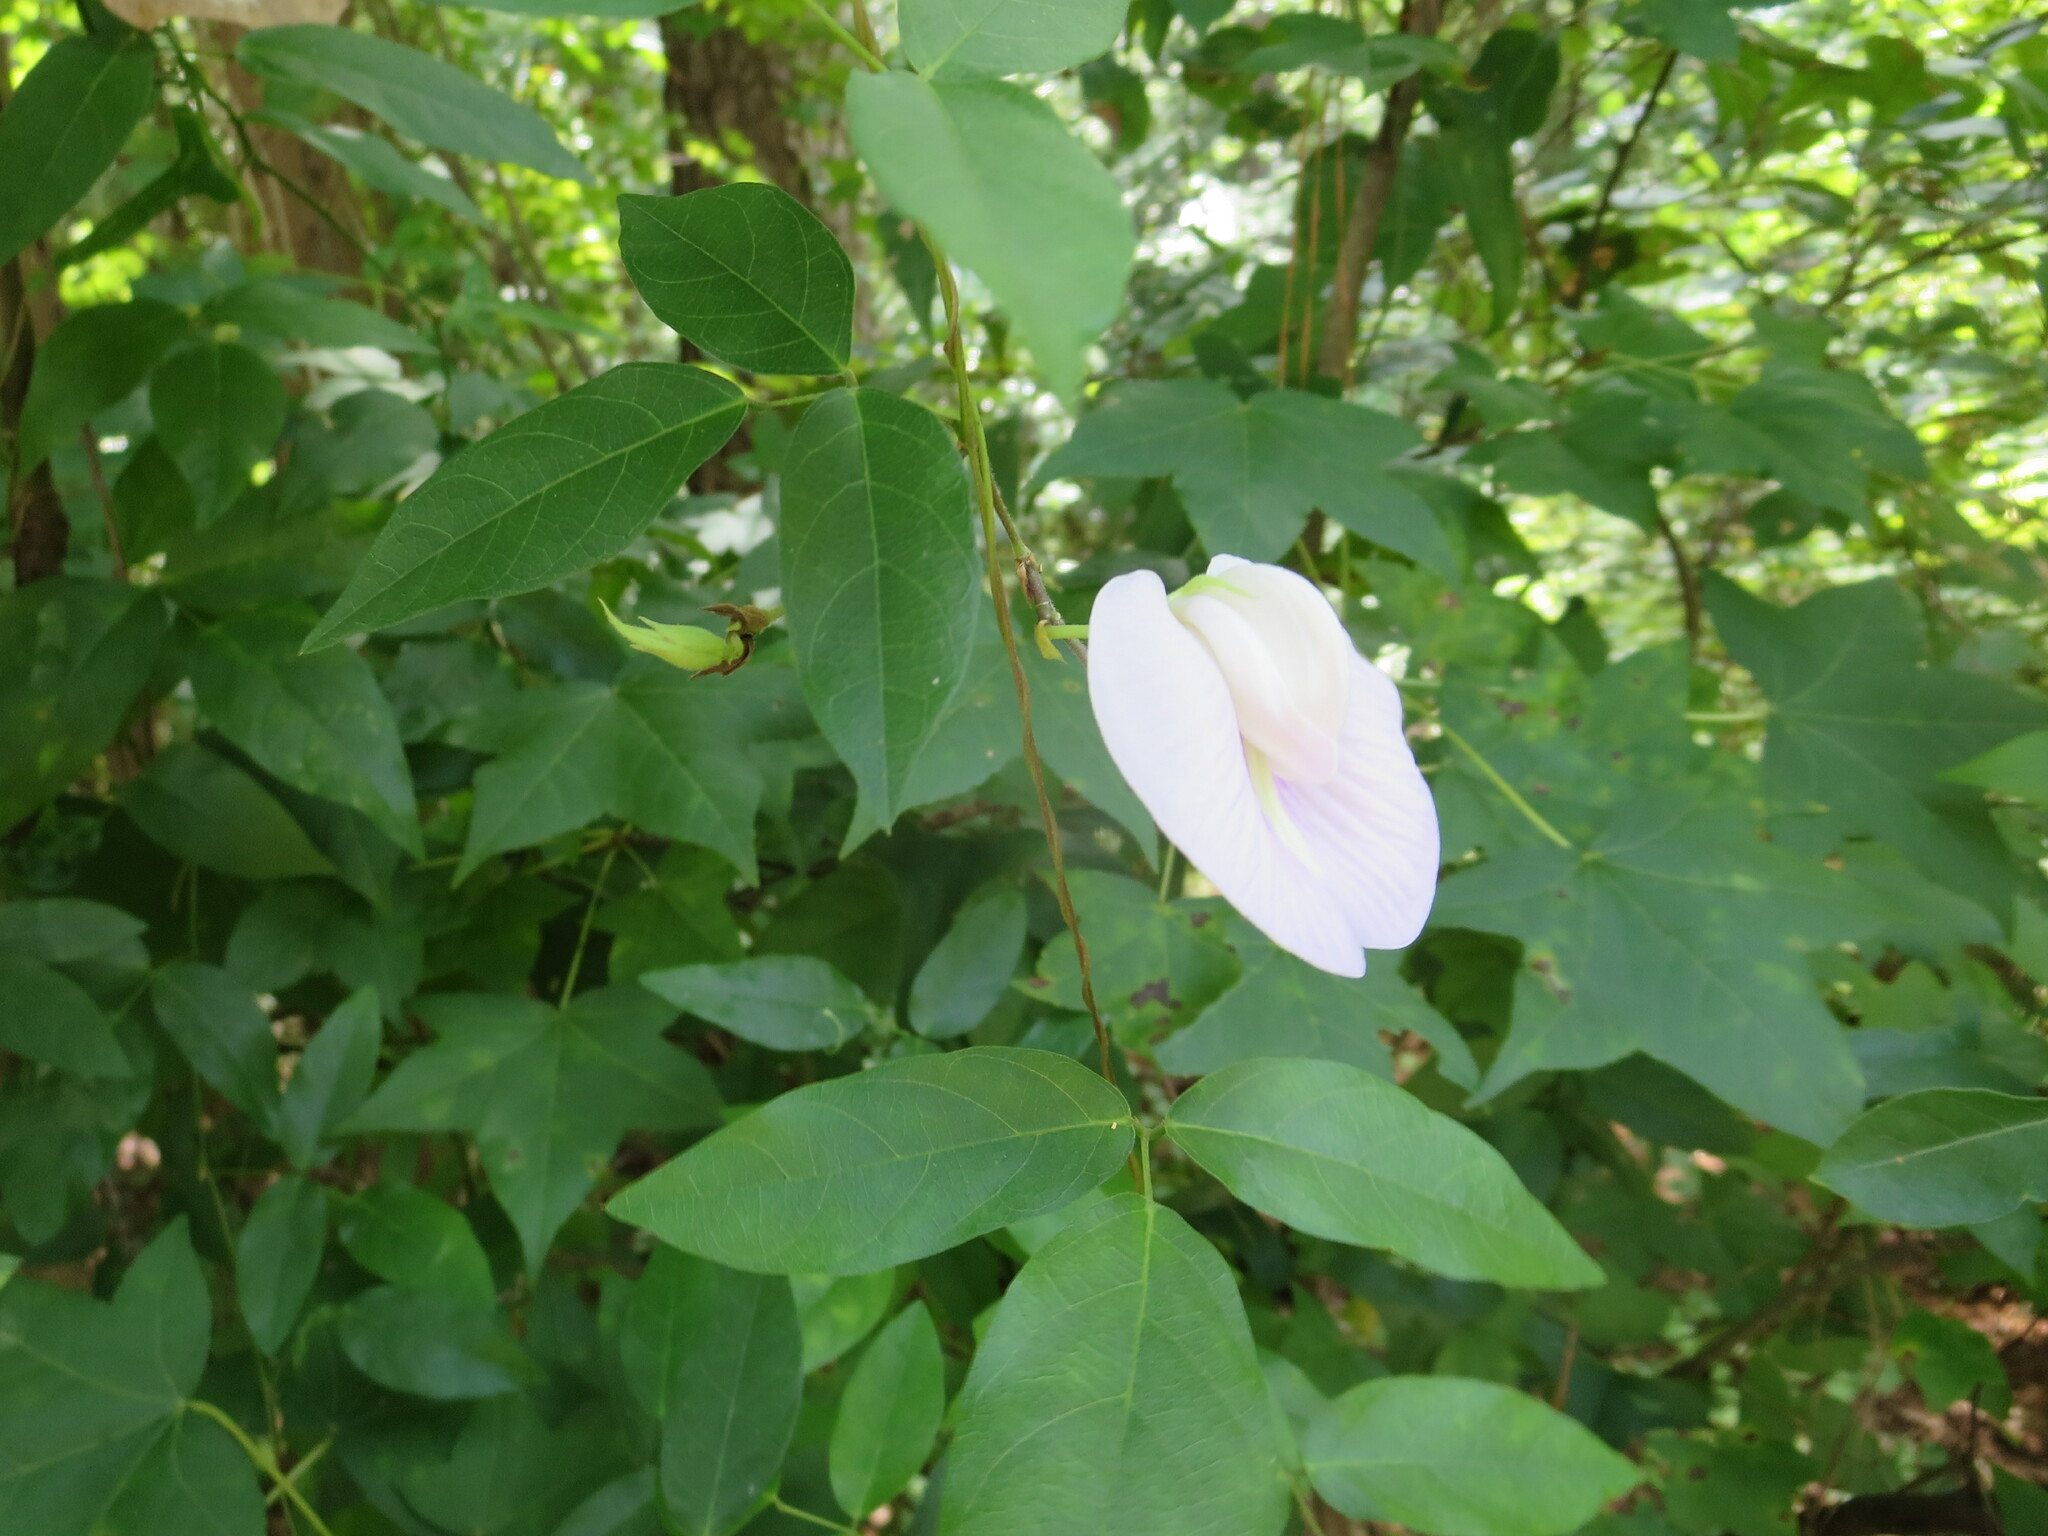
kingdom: Plantae
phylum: Tracheophyta
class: Magnoliopsida
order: Fabales
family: Fabaceae
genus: Centrosema
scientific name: Centrosema virginianum
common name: Butterfly-pea
